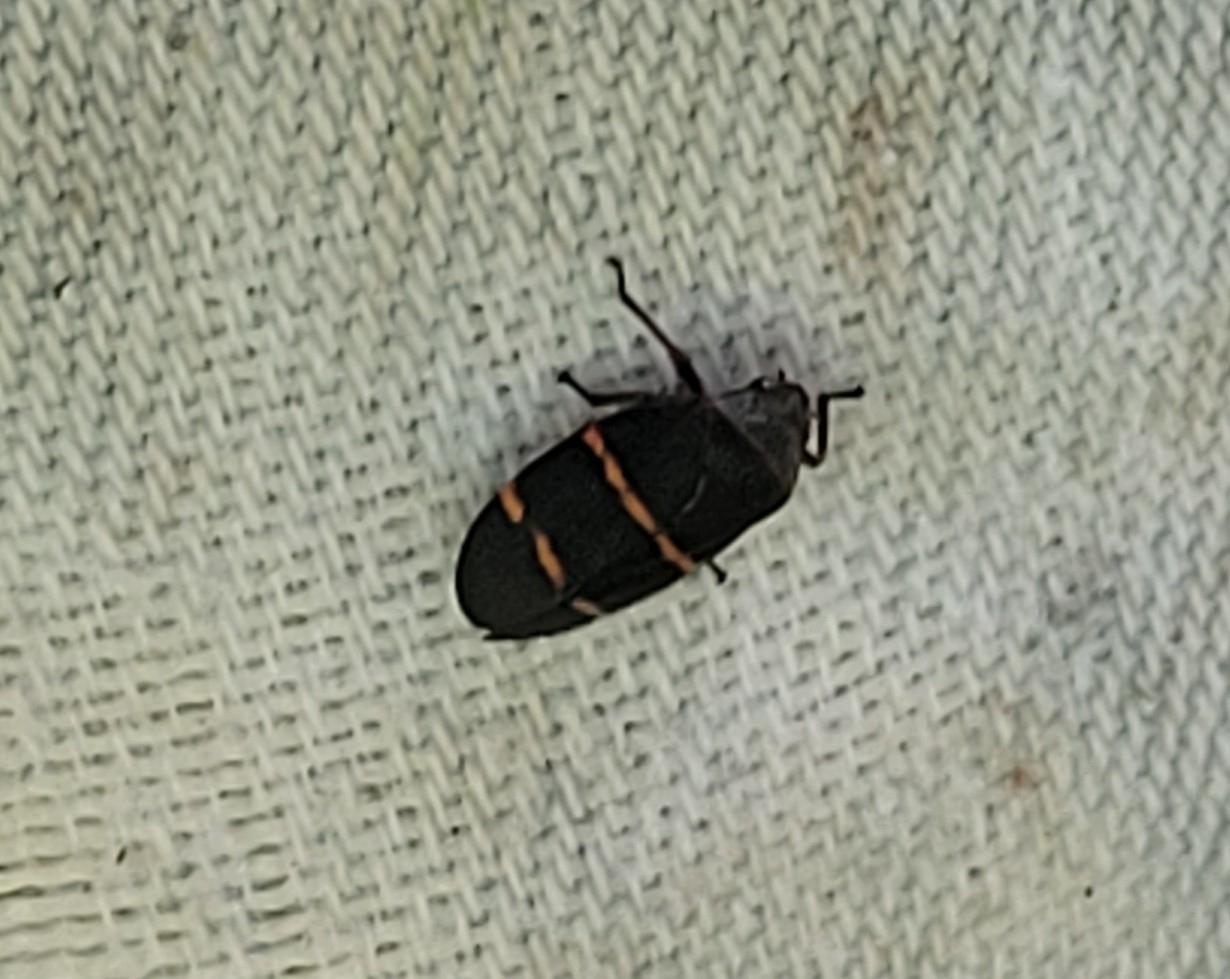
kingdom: Animalia
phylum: Arthropoda
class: Insecta
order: Hemiptera
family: Cercopidae
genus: Prosapia
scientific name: Prosapia bicincta
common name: Twolined spittlebug
